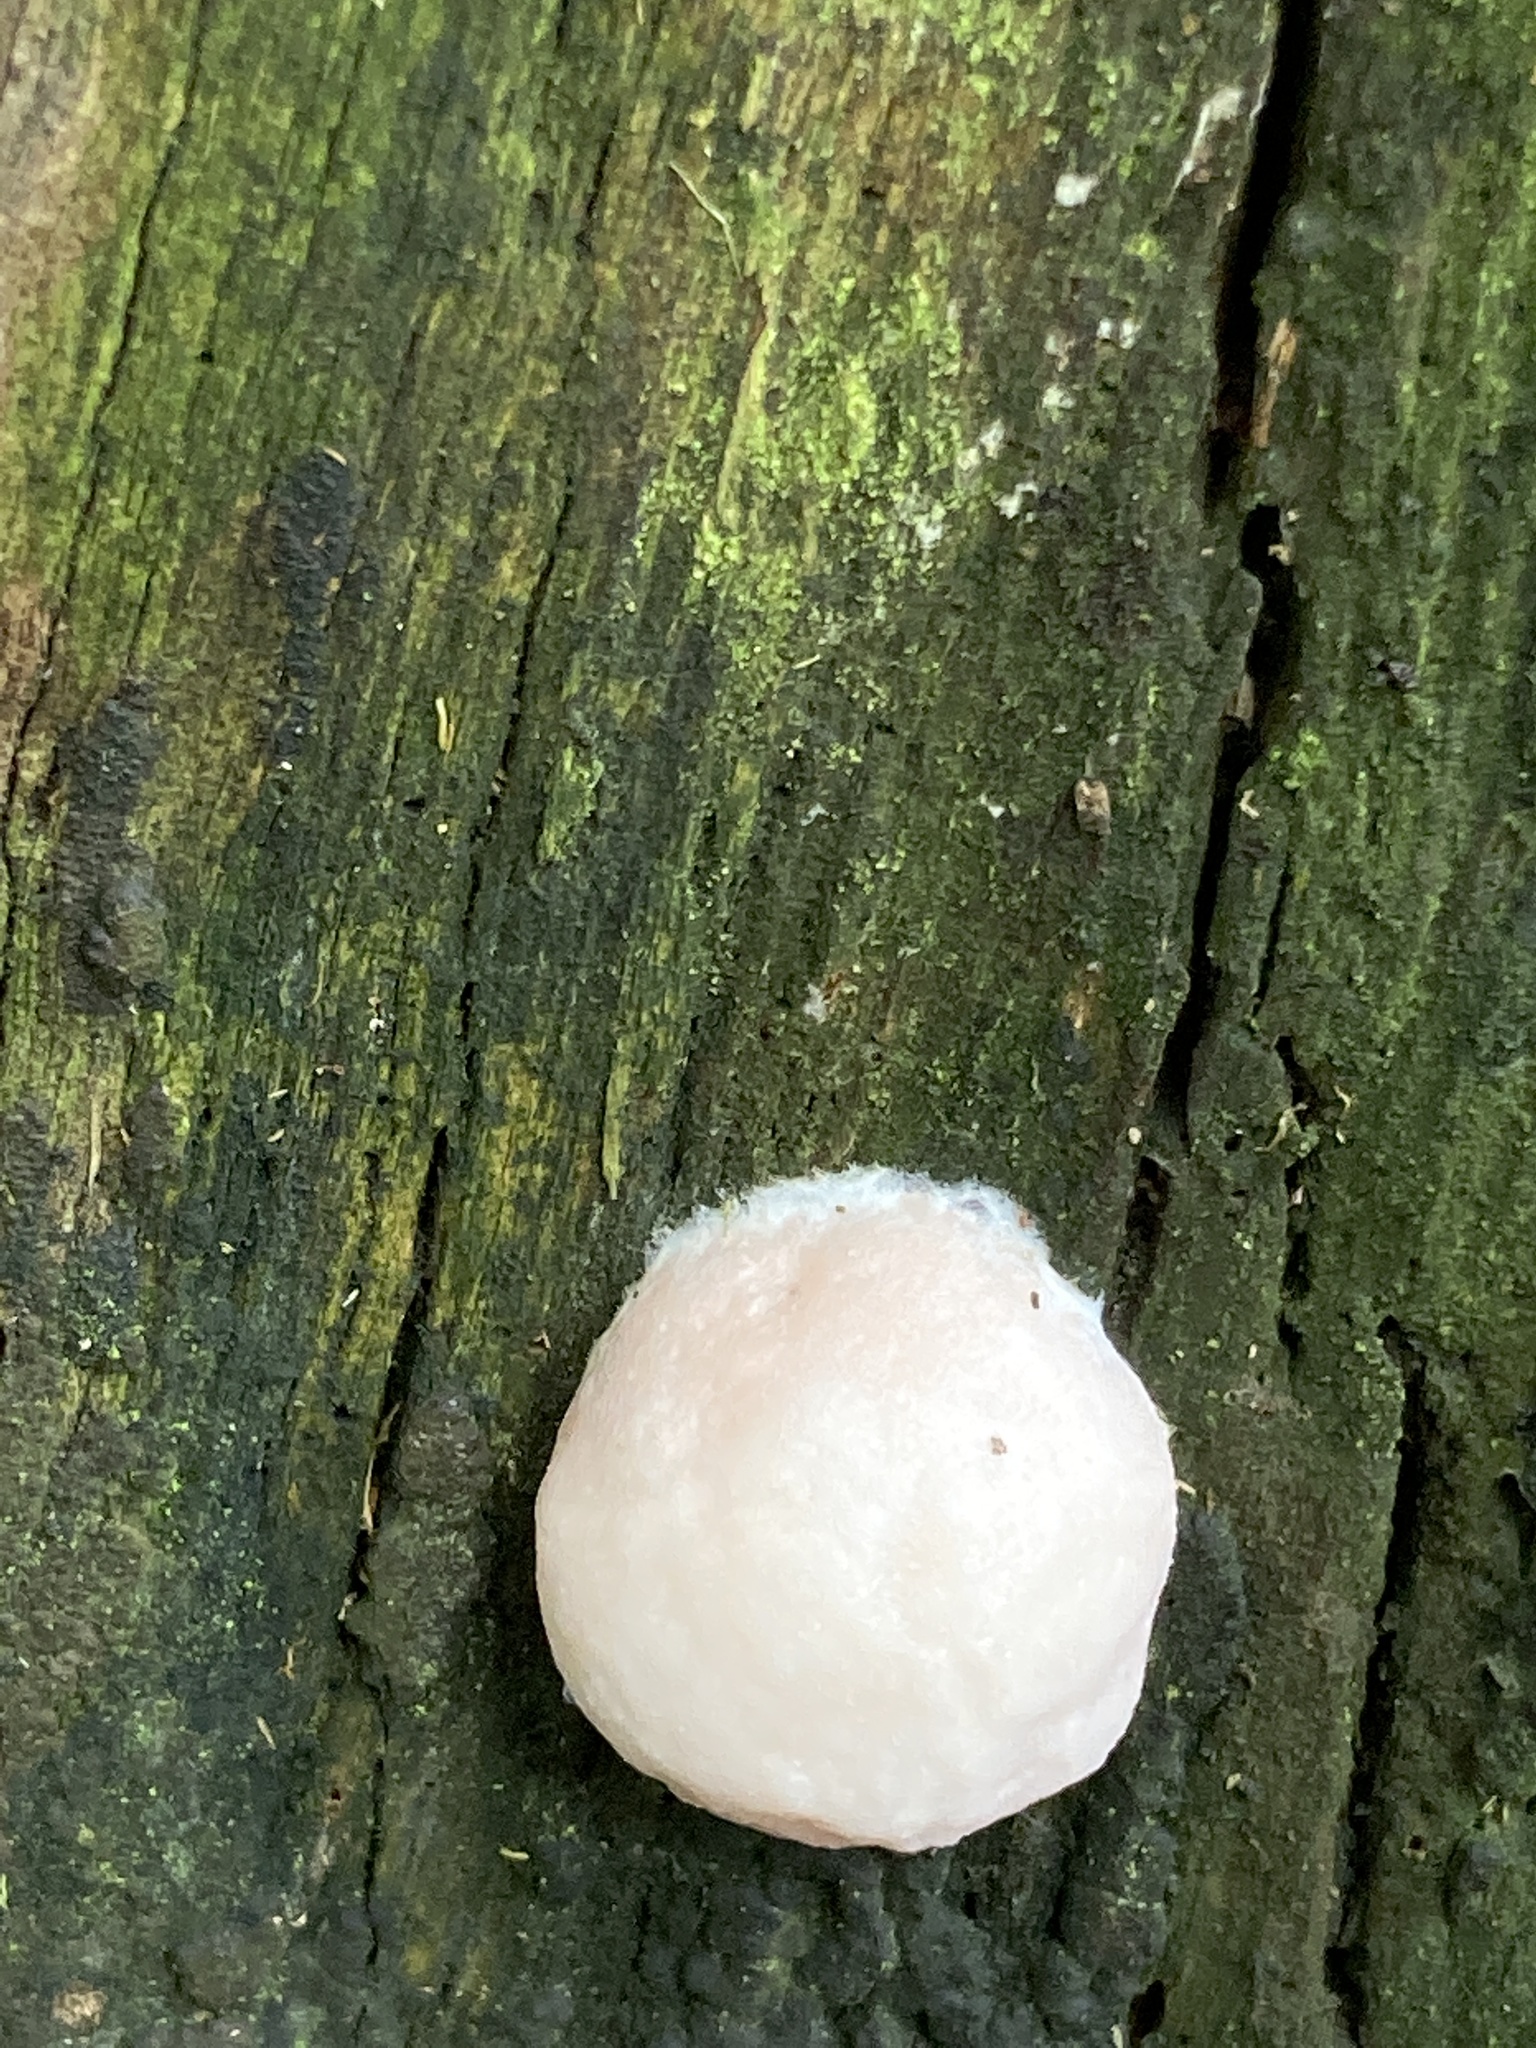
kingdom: Protozoa
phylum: Mycetozoa
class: Myxomycetes
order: Cribrariales
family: Tubiferaceae
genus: Reticularia
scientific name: Reticularia lycoperdon
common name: False puffball
